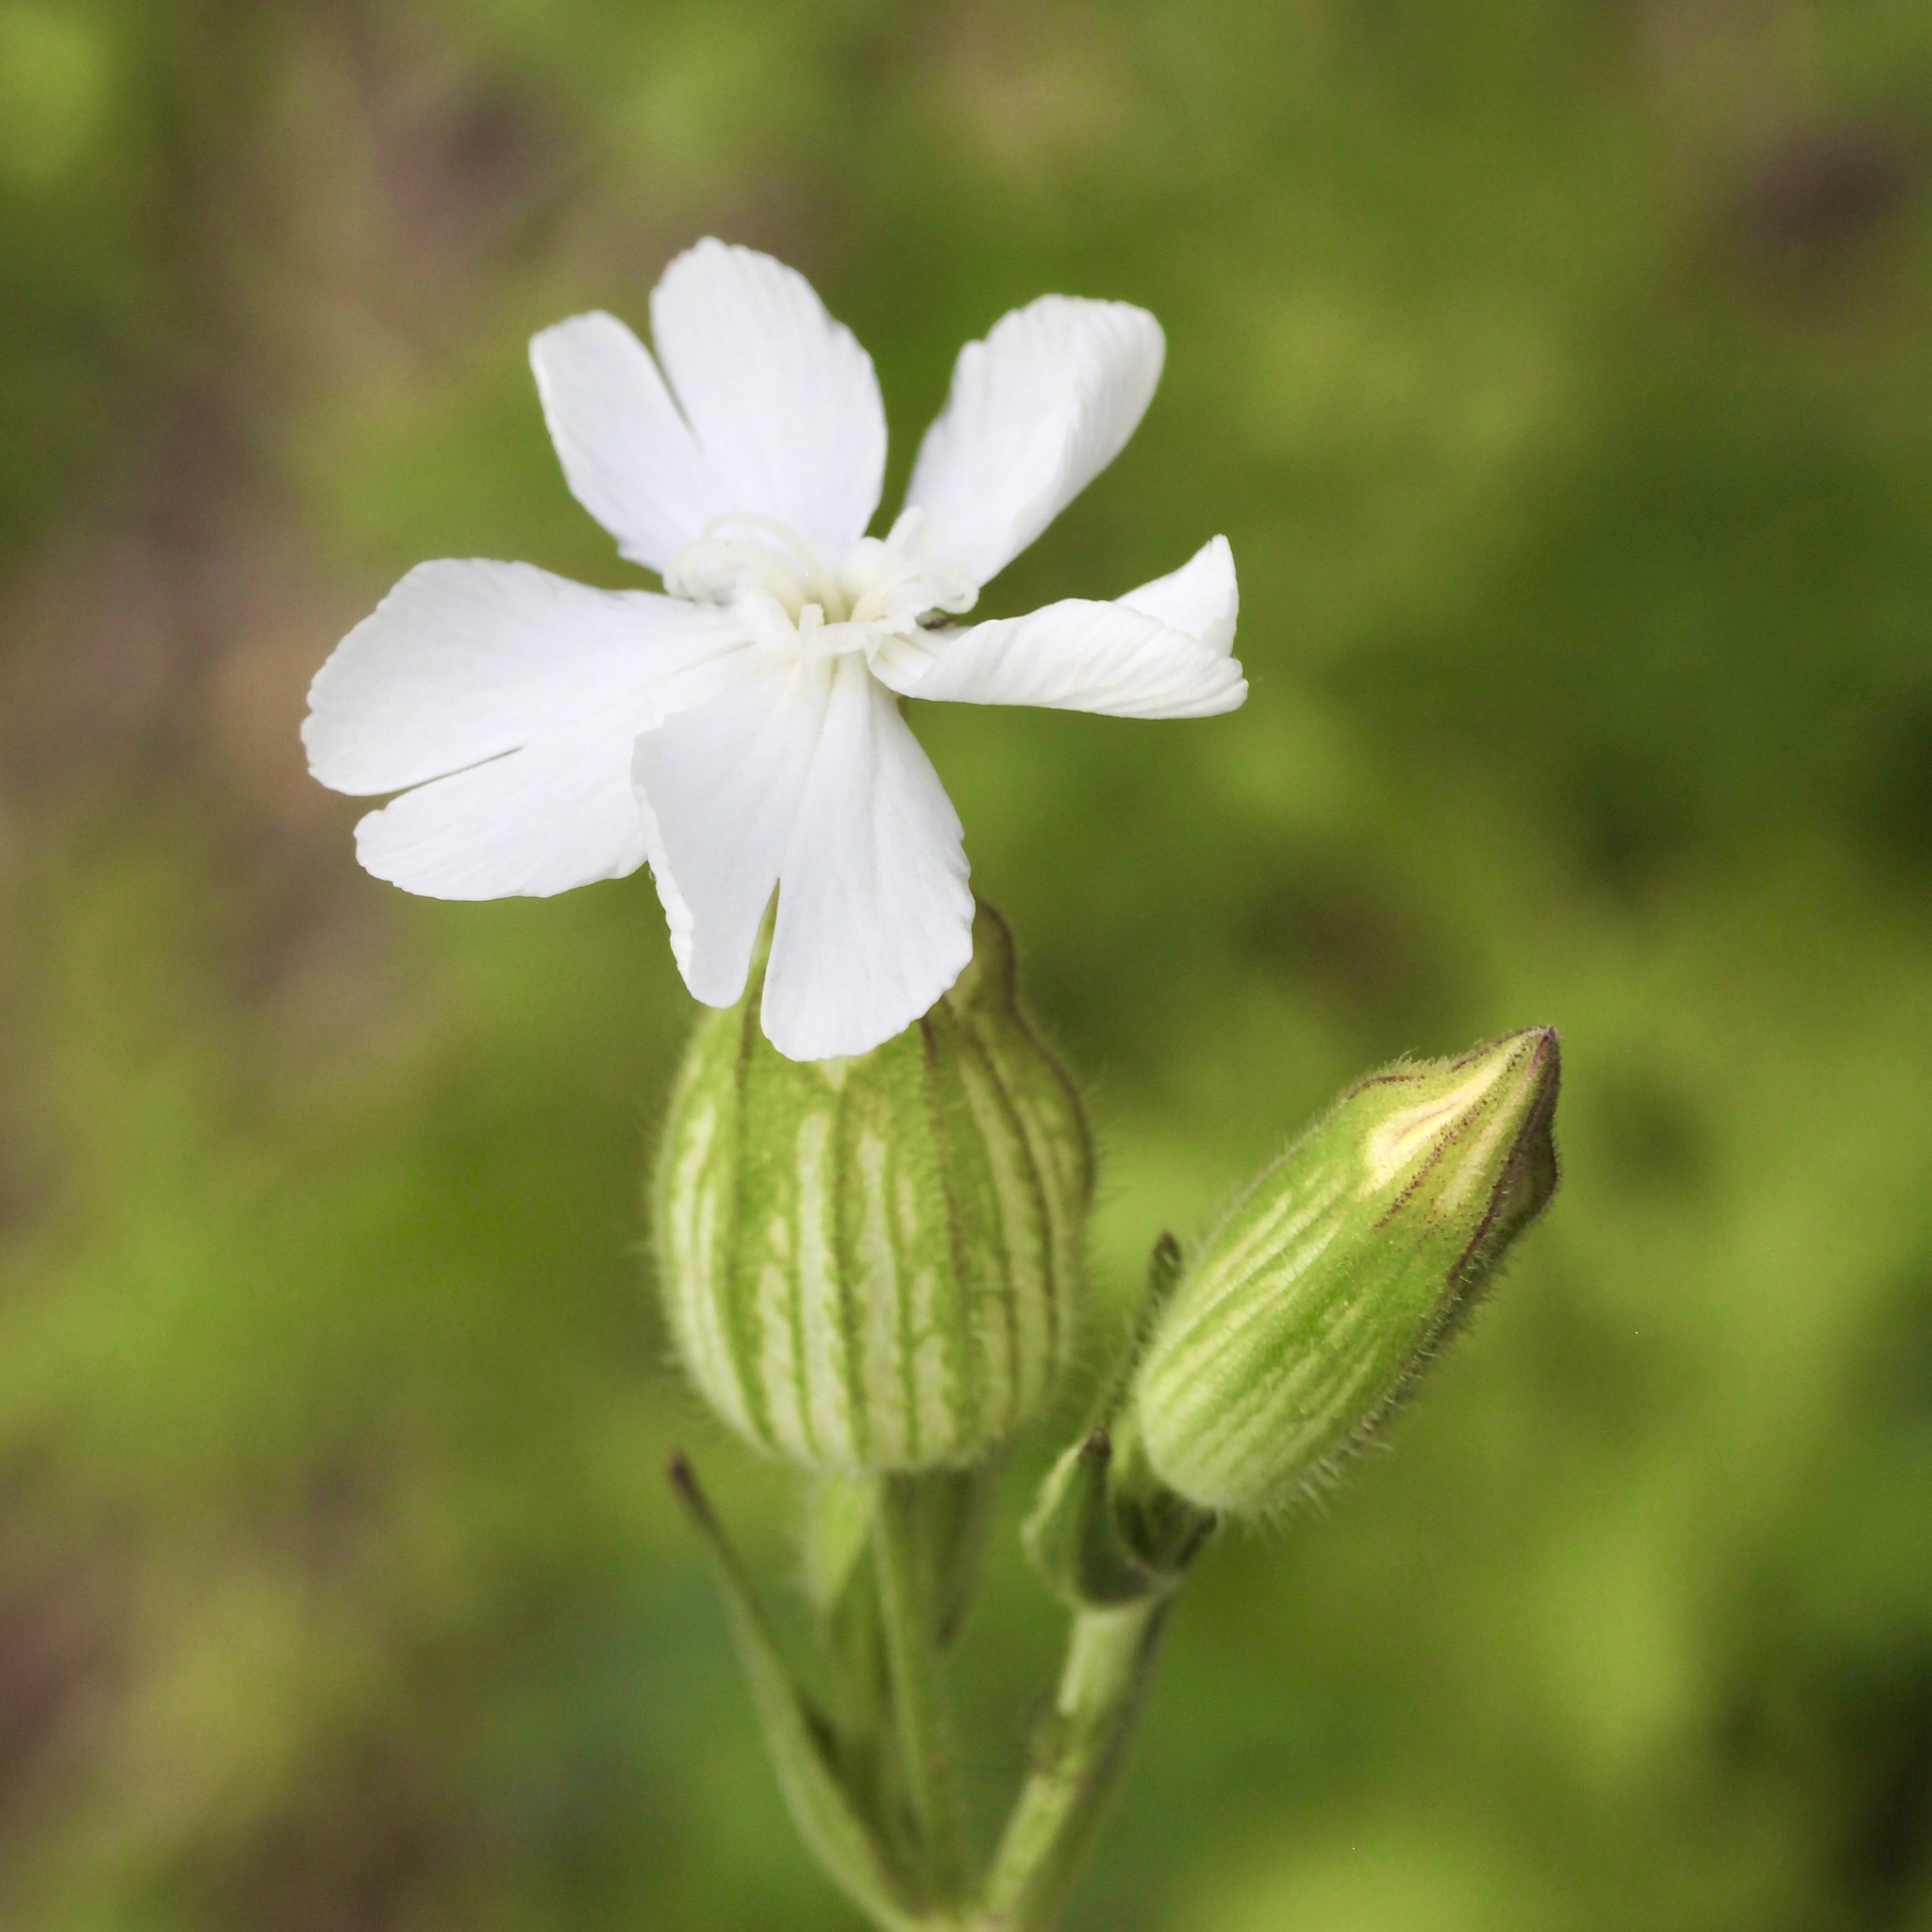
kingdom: Plantae
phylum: Tracheophyta
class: Magnoliopsida
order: Caryophyllales
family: Caryophyllaceae
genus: Silene
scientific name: Silene latifolia
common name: White campion
